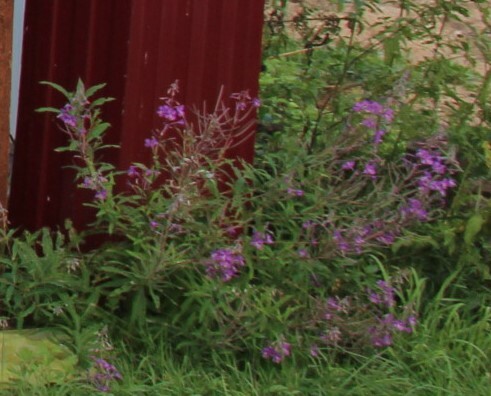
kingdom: Plantae
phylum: Tracheophyta
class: Magnoliopsida
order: Myrtales
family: Onagraceae
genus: Chamaenerion
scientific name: Chamaenerion angustifolium
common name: Fireweed
